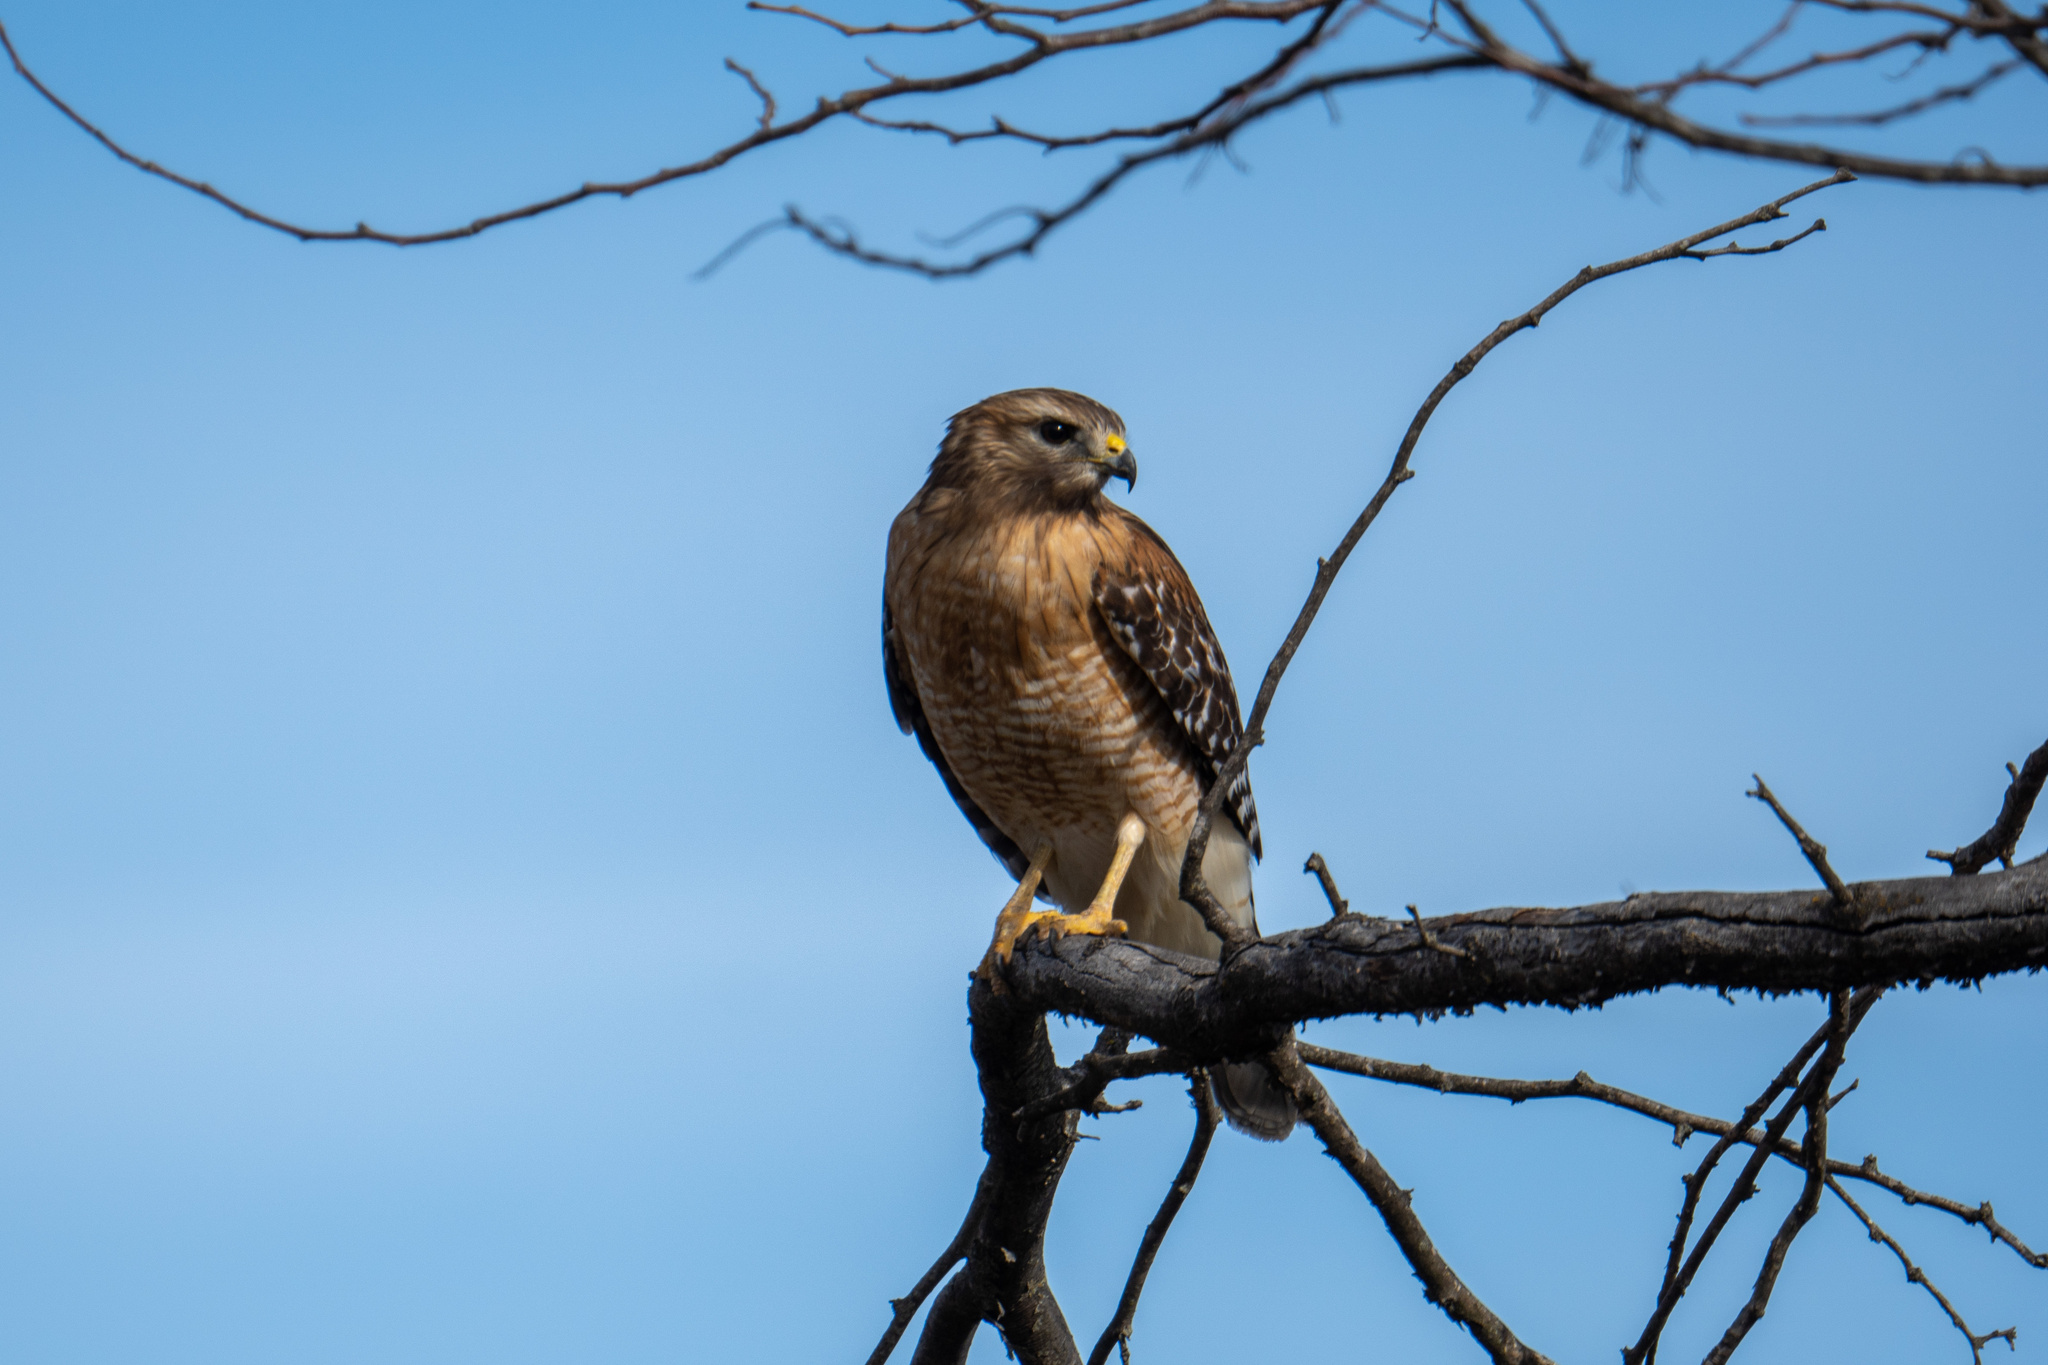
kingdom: Animalia
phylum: Chordata
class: Aves
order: Accipitriformes
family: Accipitridae
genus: Buteo
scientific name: Buteo lineatus
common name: Red-shouldered hawk
